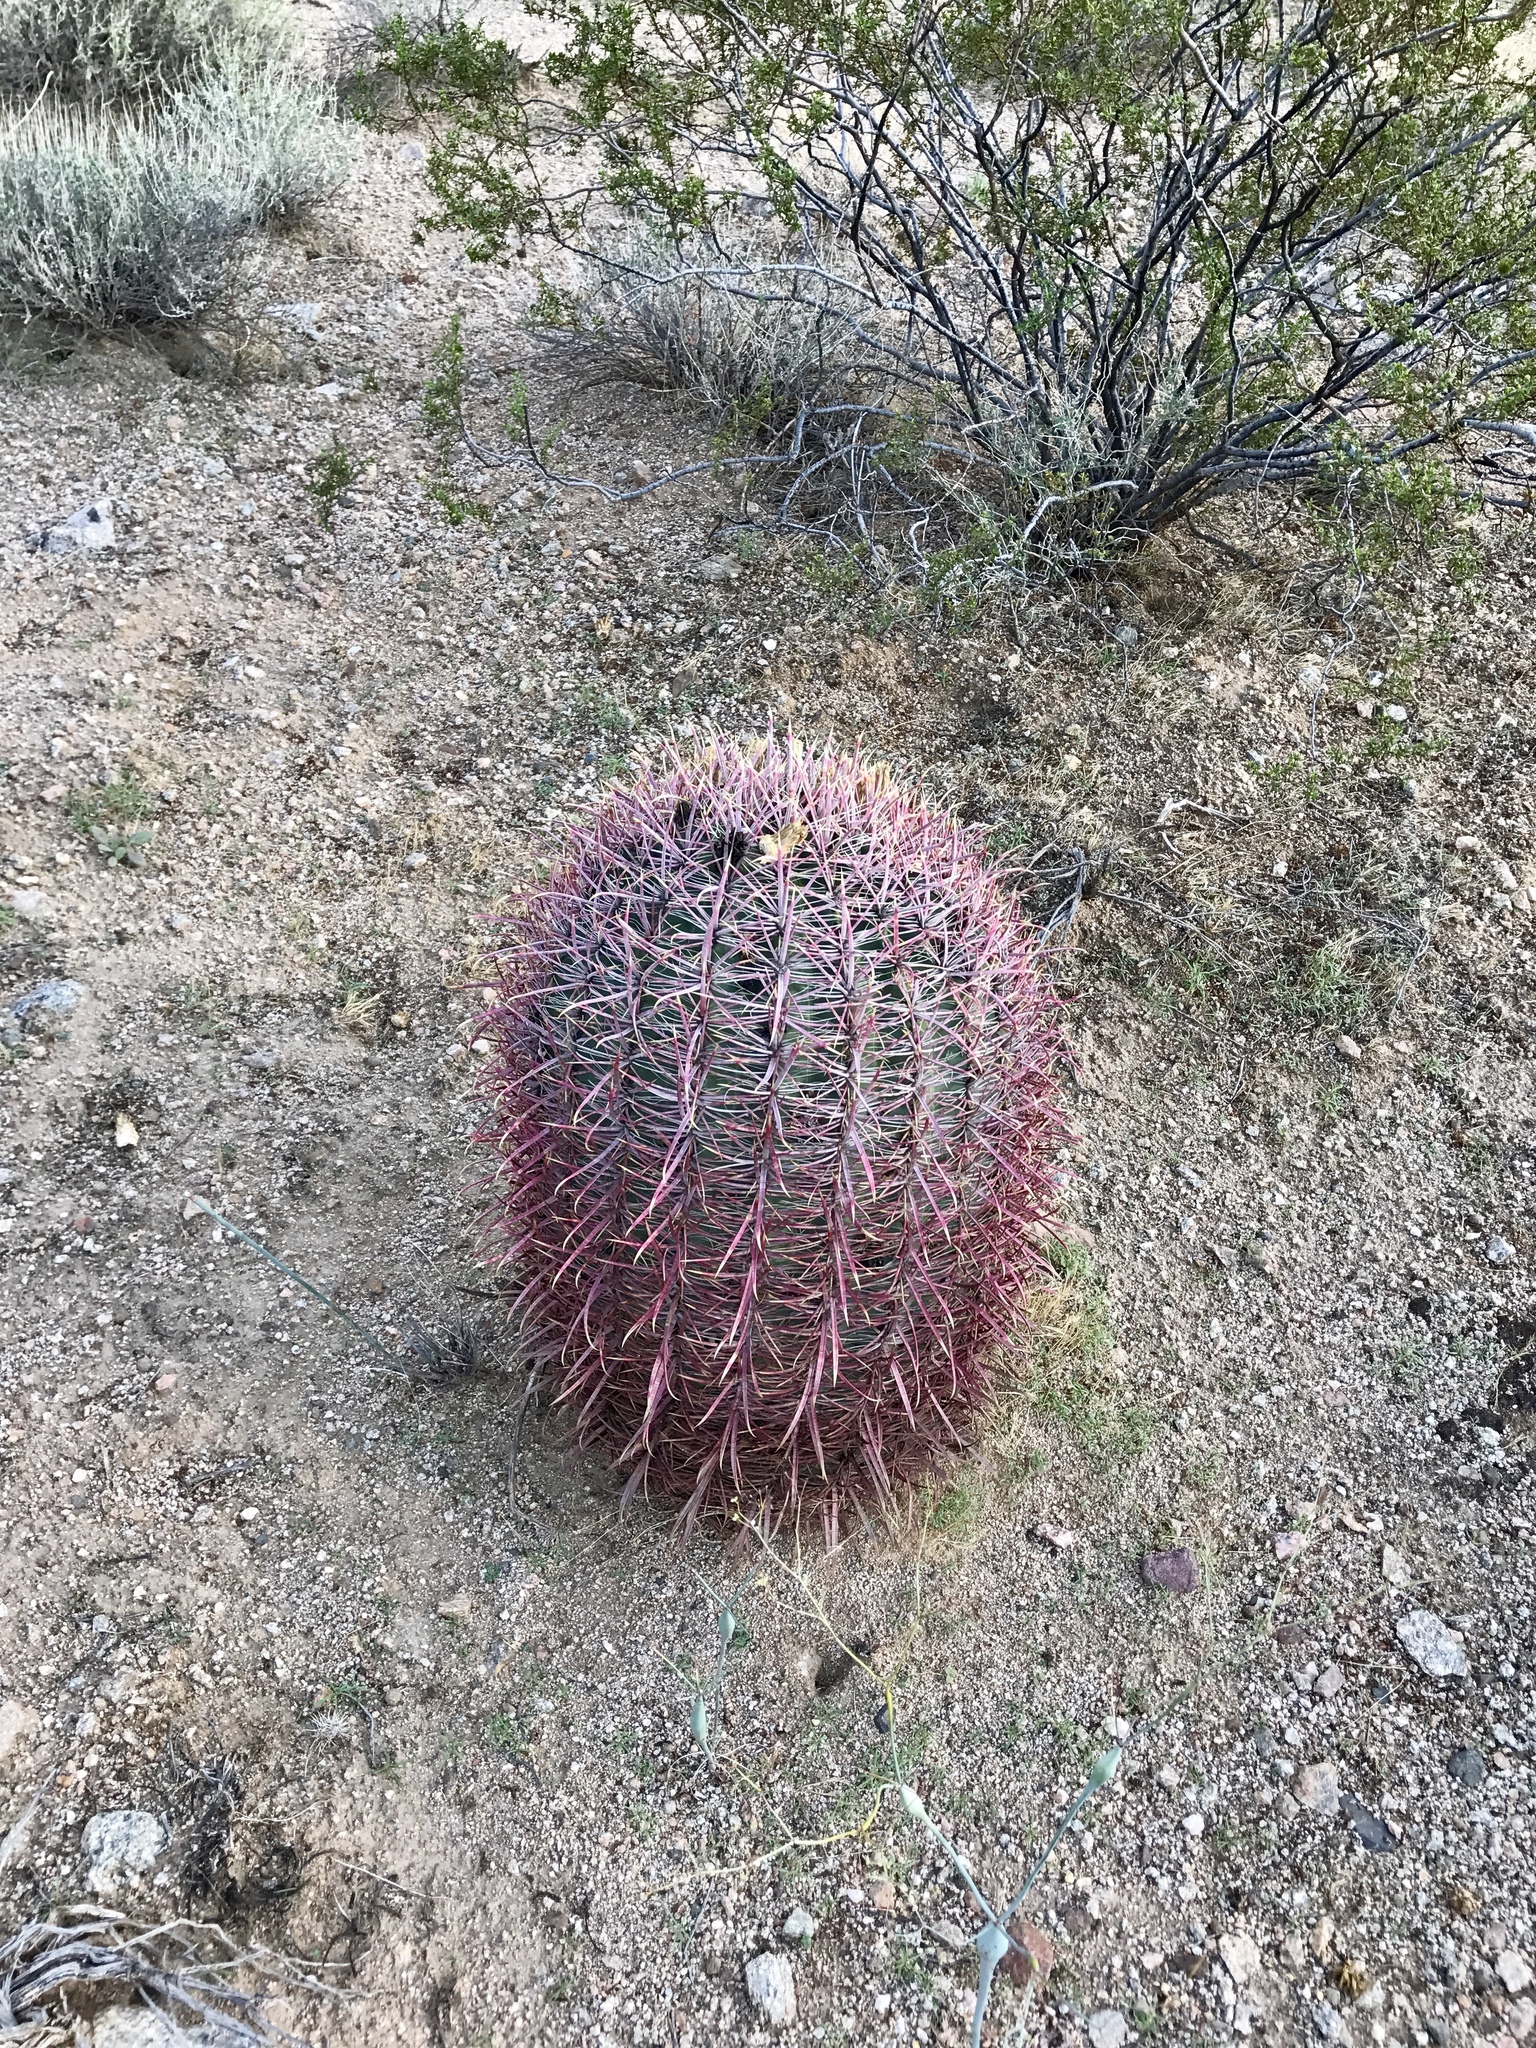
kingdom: Plantae
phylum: Tracheophyta
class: Magnoliopsida
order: Caryophyllales
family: Cactaceae
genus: Ferocactus
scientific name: Ferocactus cylindraceus
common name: California barrel cactus
